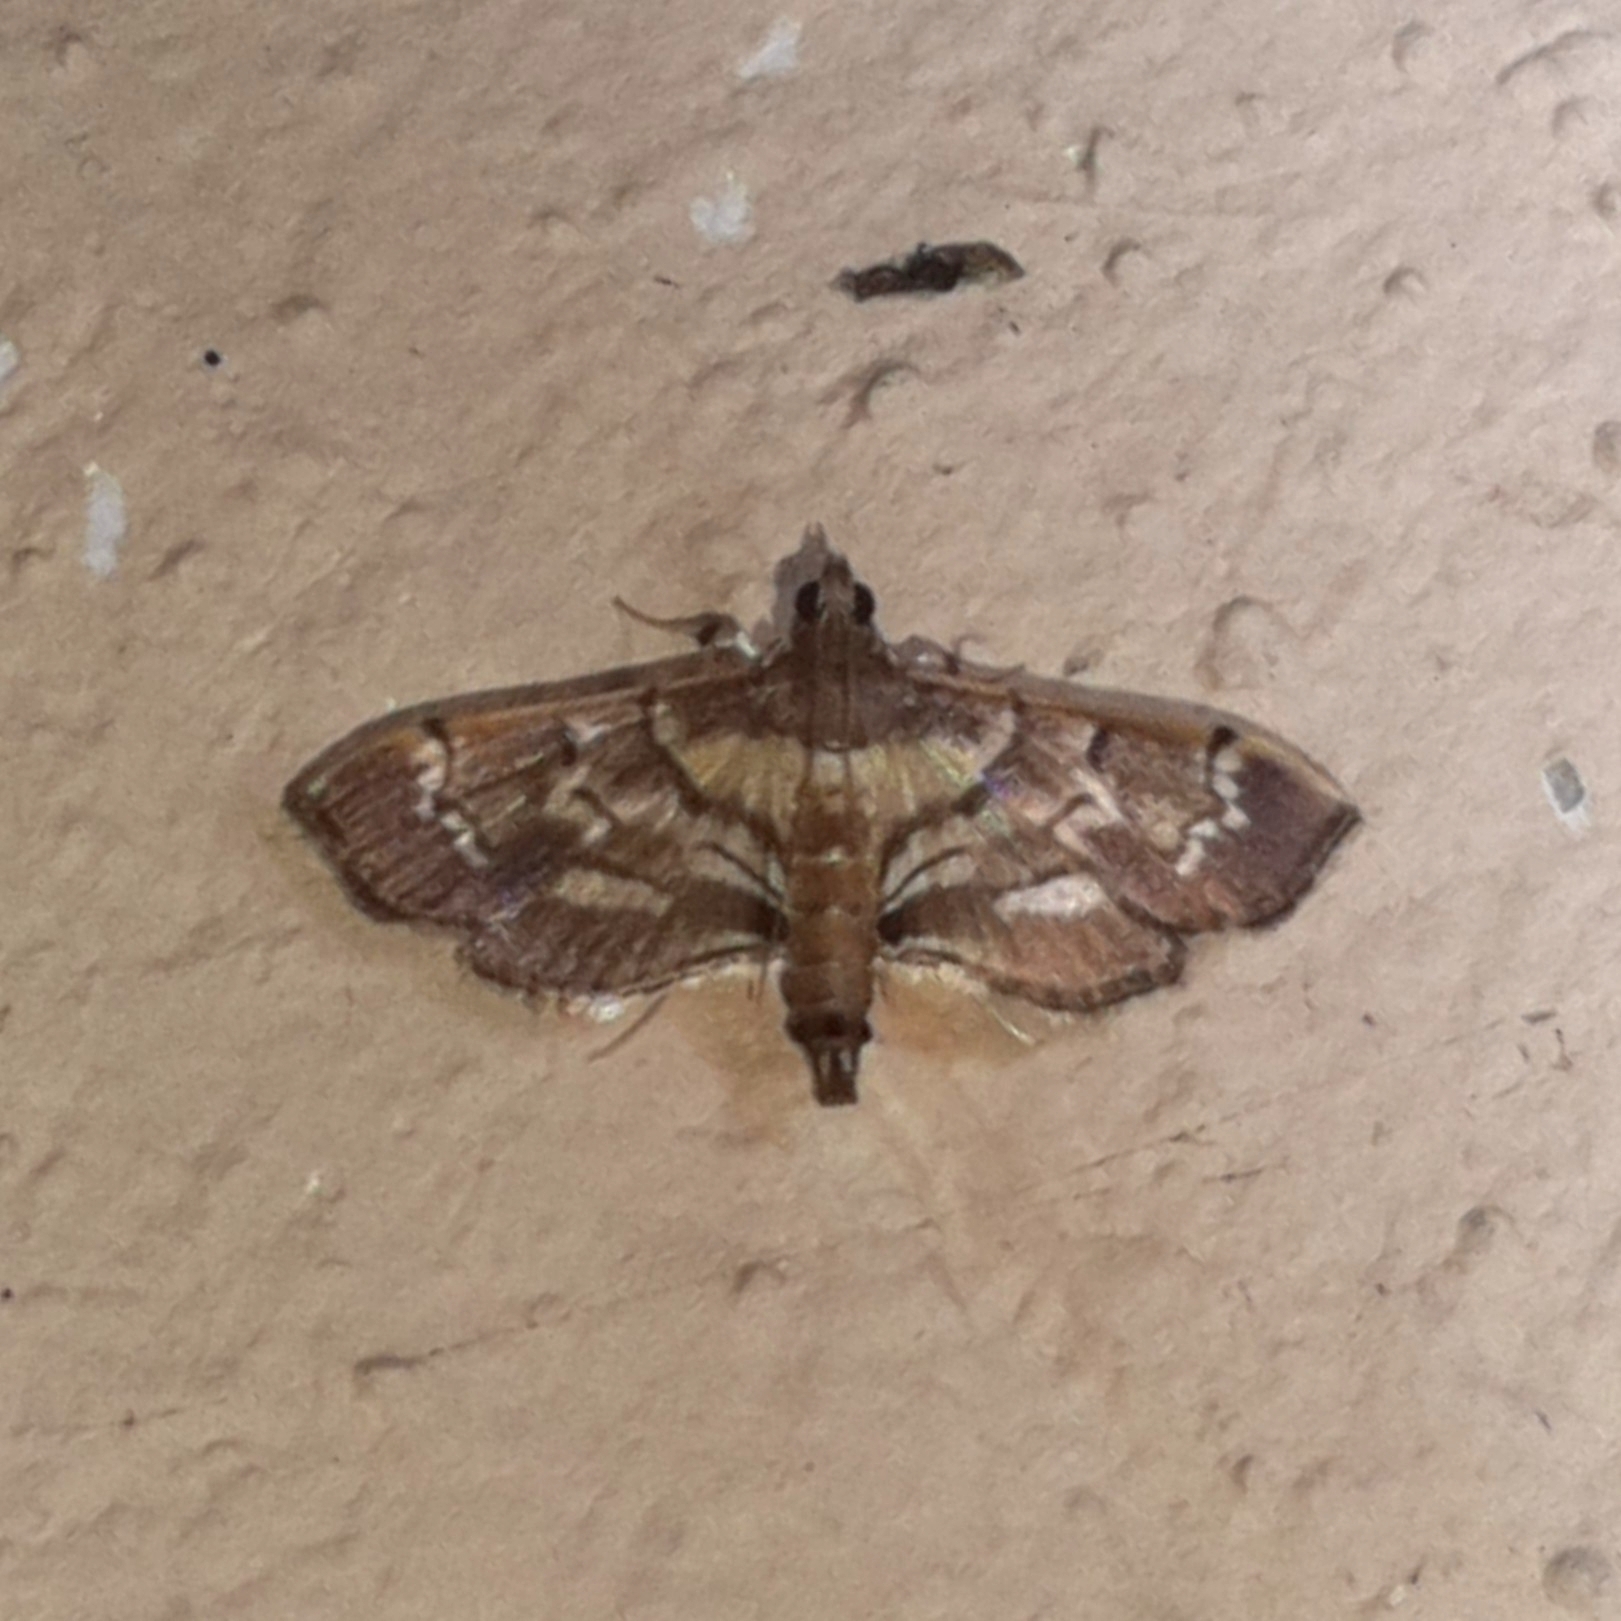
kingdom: Animalia
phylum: Arthropoda
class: Insecta
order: Lepidoptera
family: Crambidae
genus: Salbia
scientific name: Salbia cassidalis
